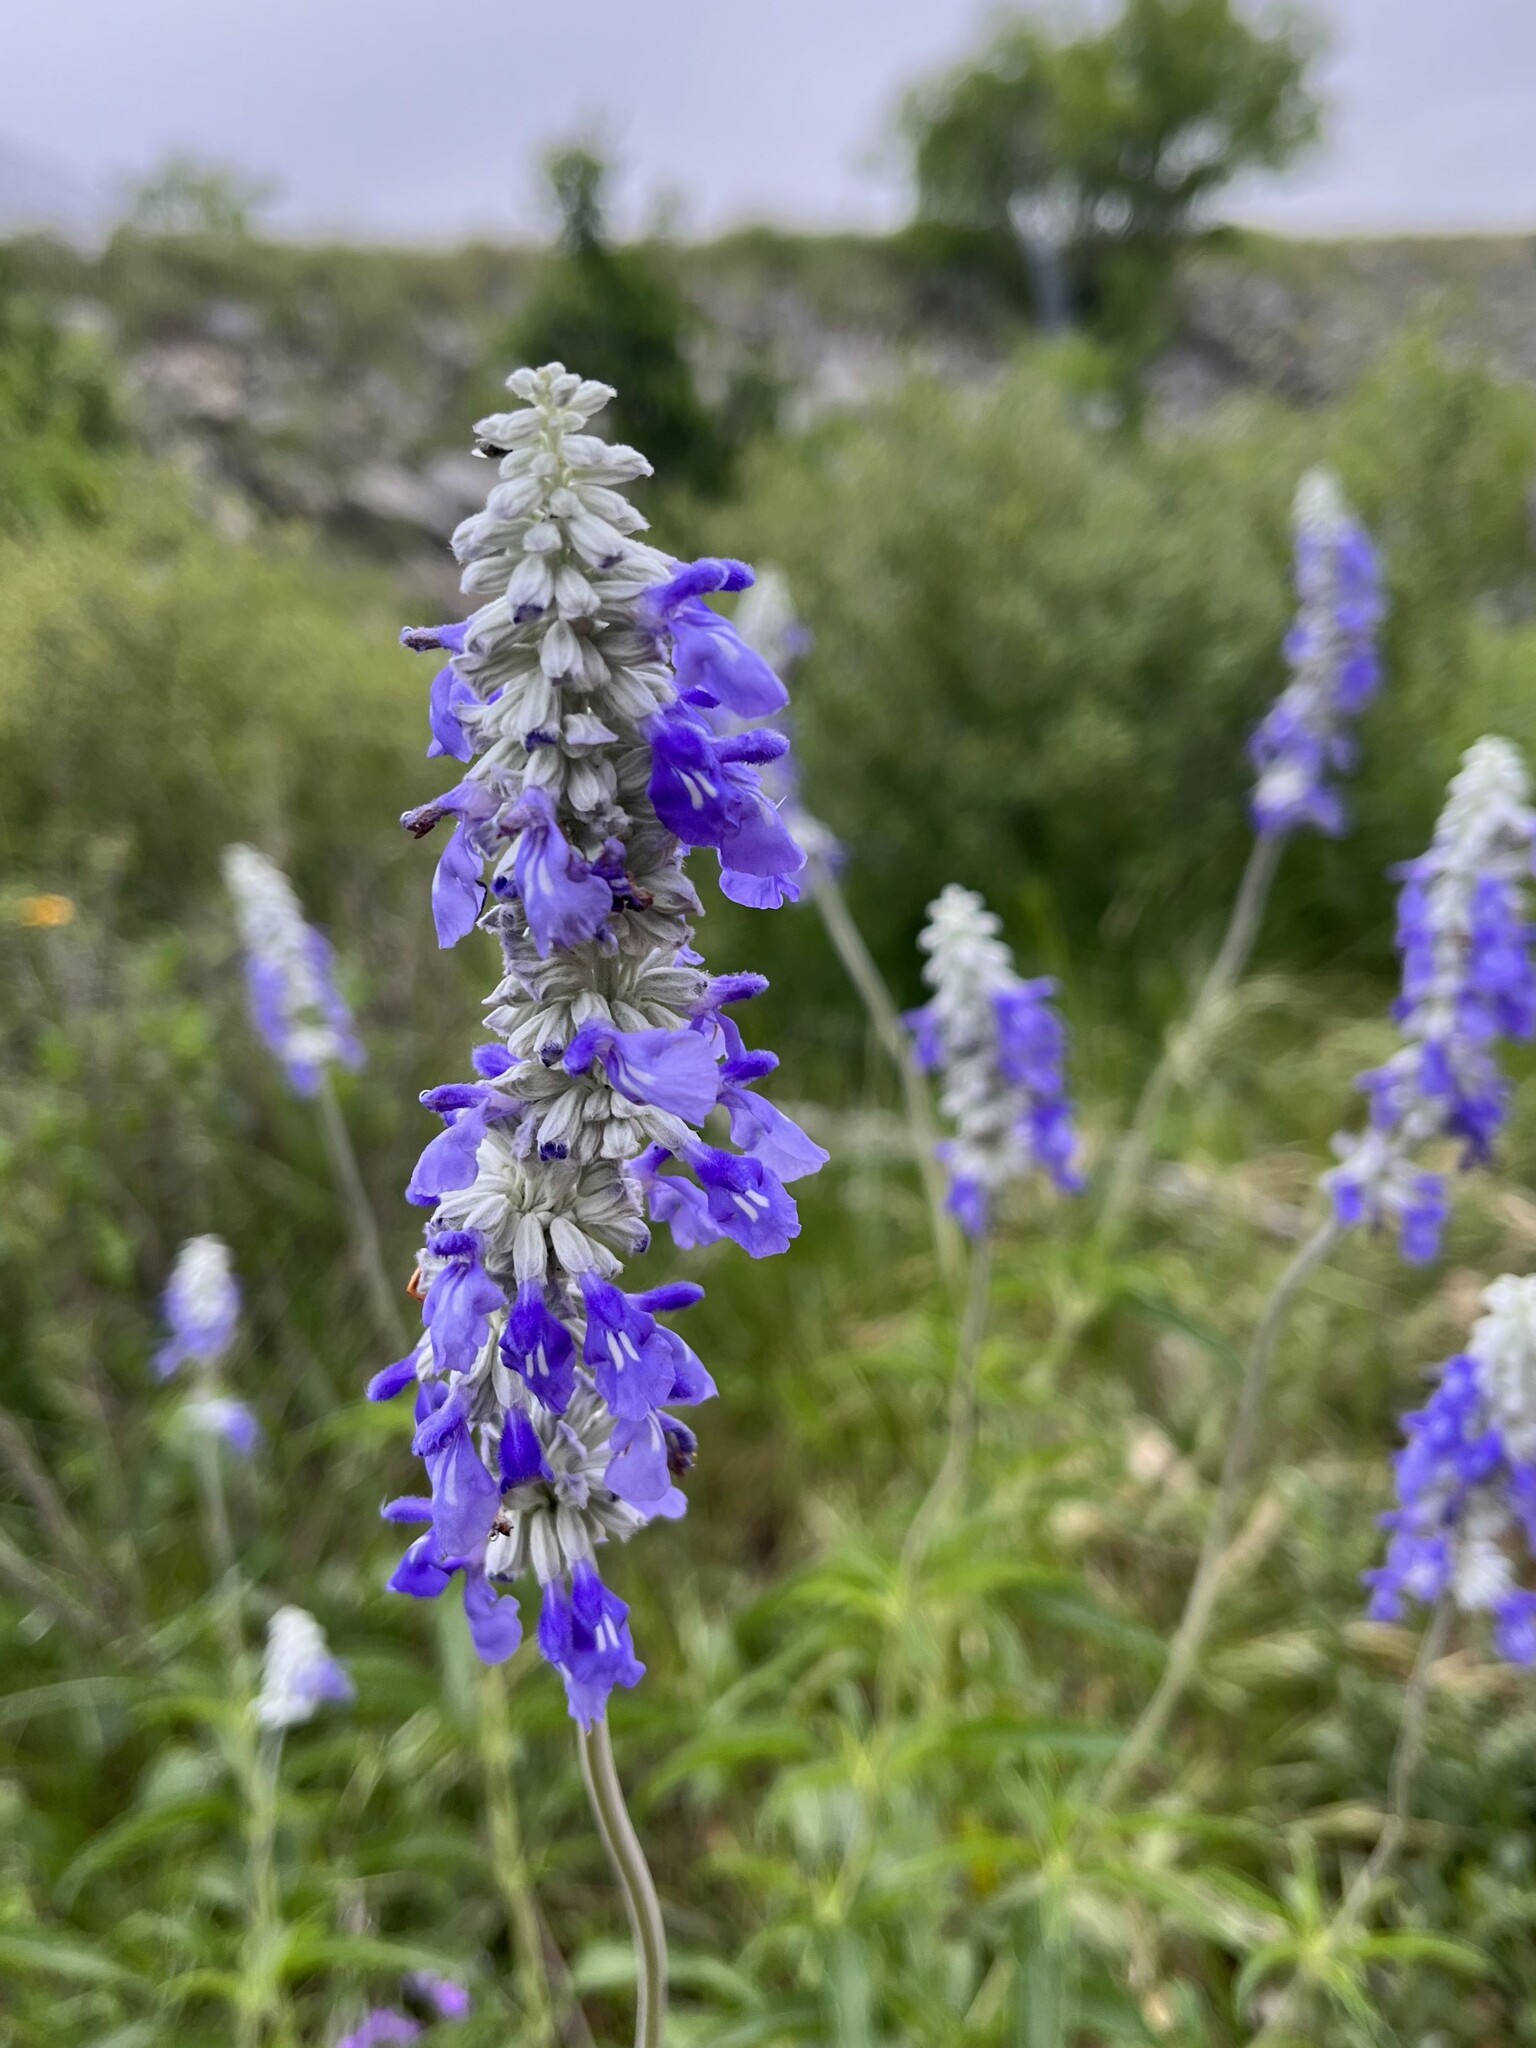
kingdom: Plantae
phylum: Tracheophyta
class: Magnoliopsida
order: Lamiales
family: Lamiaceae
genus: Salvia
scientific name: Salvia farinacea
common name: Mealy sage
